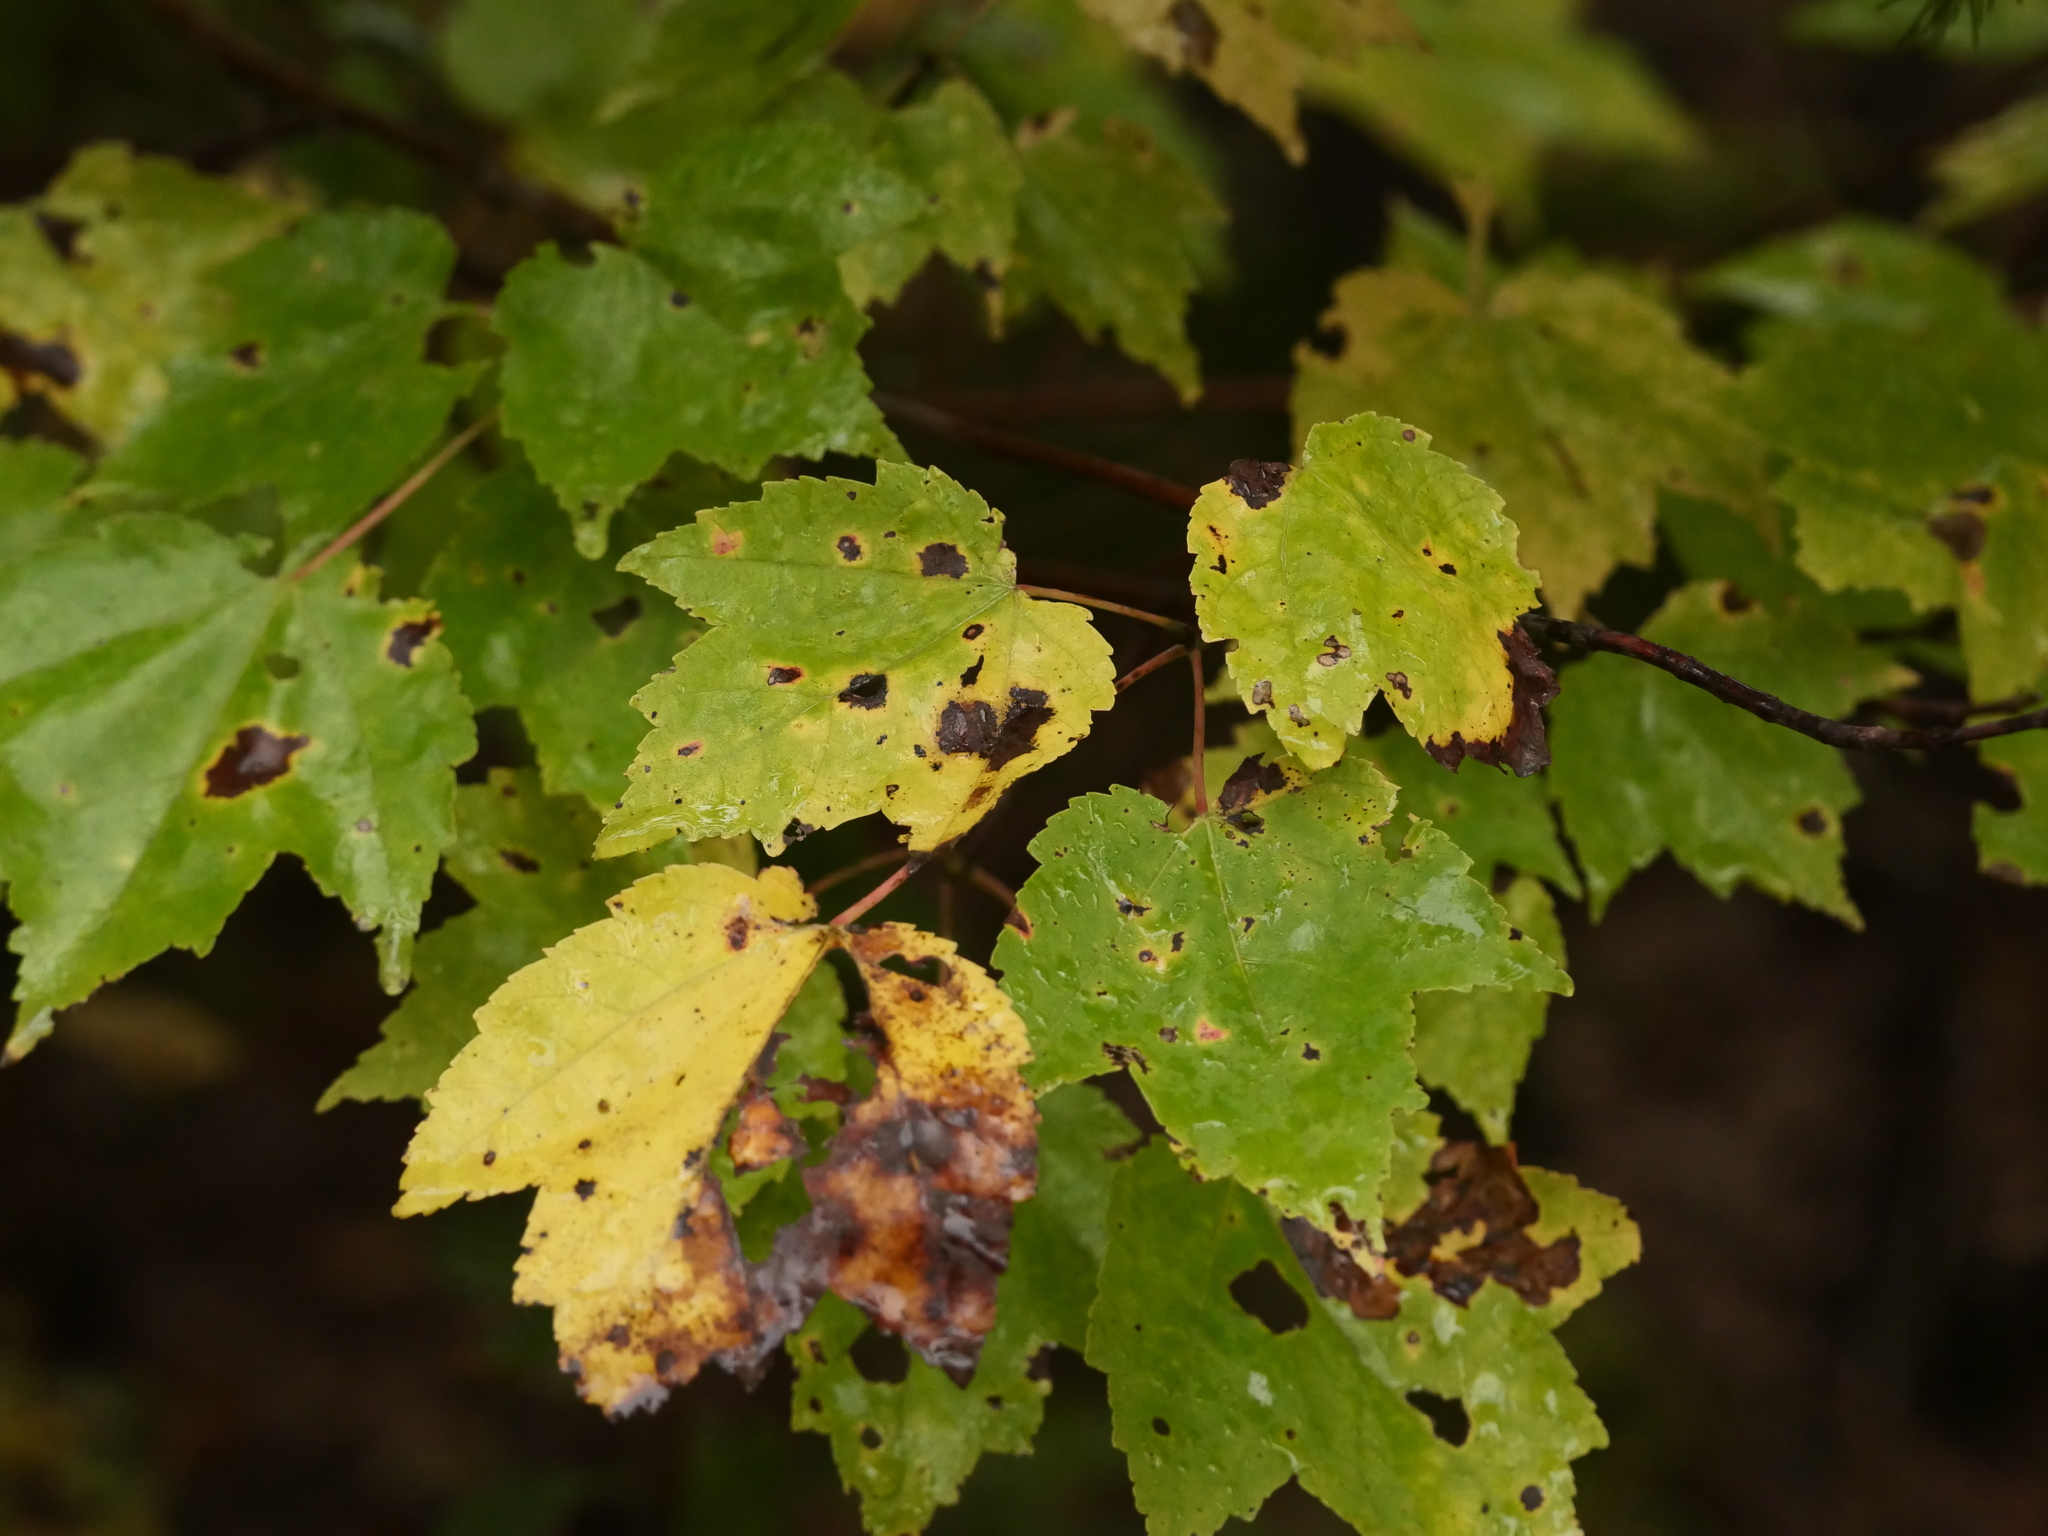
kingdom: Plantae
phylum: Tracheophyta
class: Magnoliopsida
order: Sapindales
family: Sapindaceae
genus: Acer
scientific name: Acer rubrum
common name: Red maple
